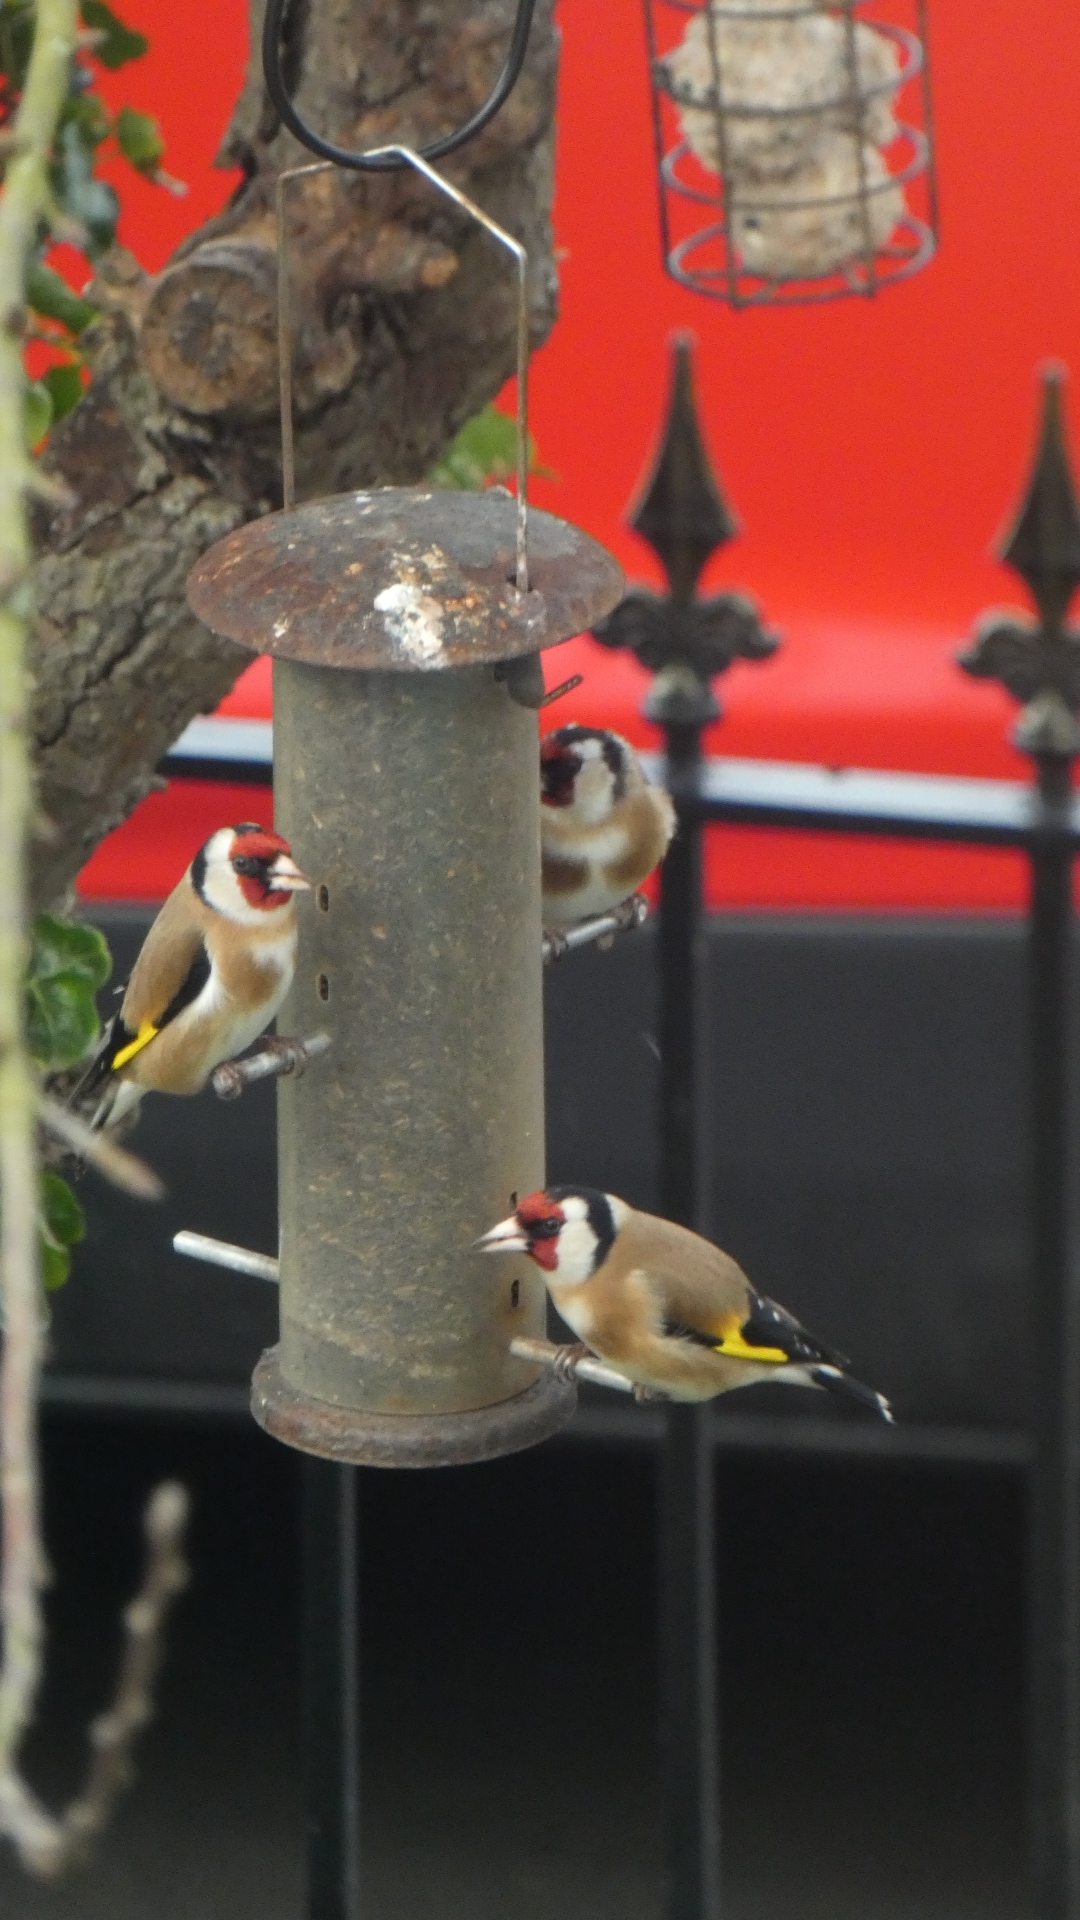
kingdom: Animalia
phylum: Chordata
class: Aves
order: Passeriformes
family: Fringillidae
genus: Carduelis
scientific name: Carduelis carduelis
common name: European goldfinch
